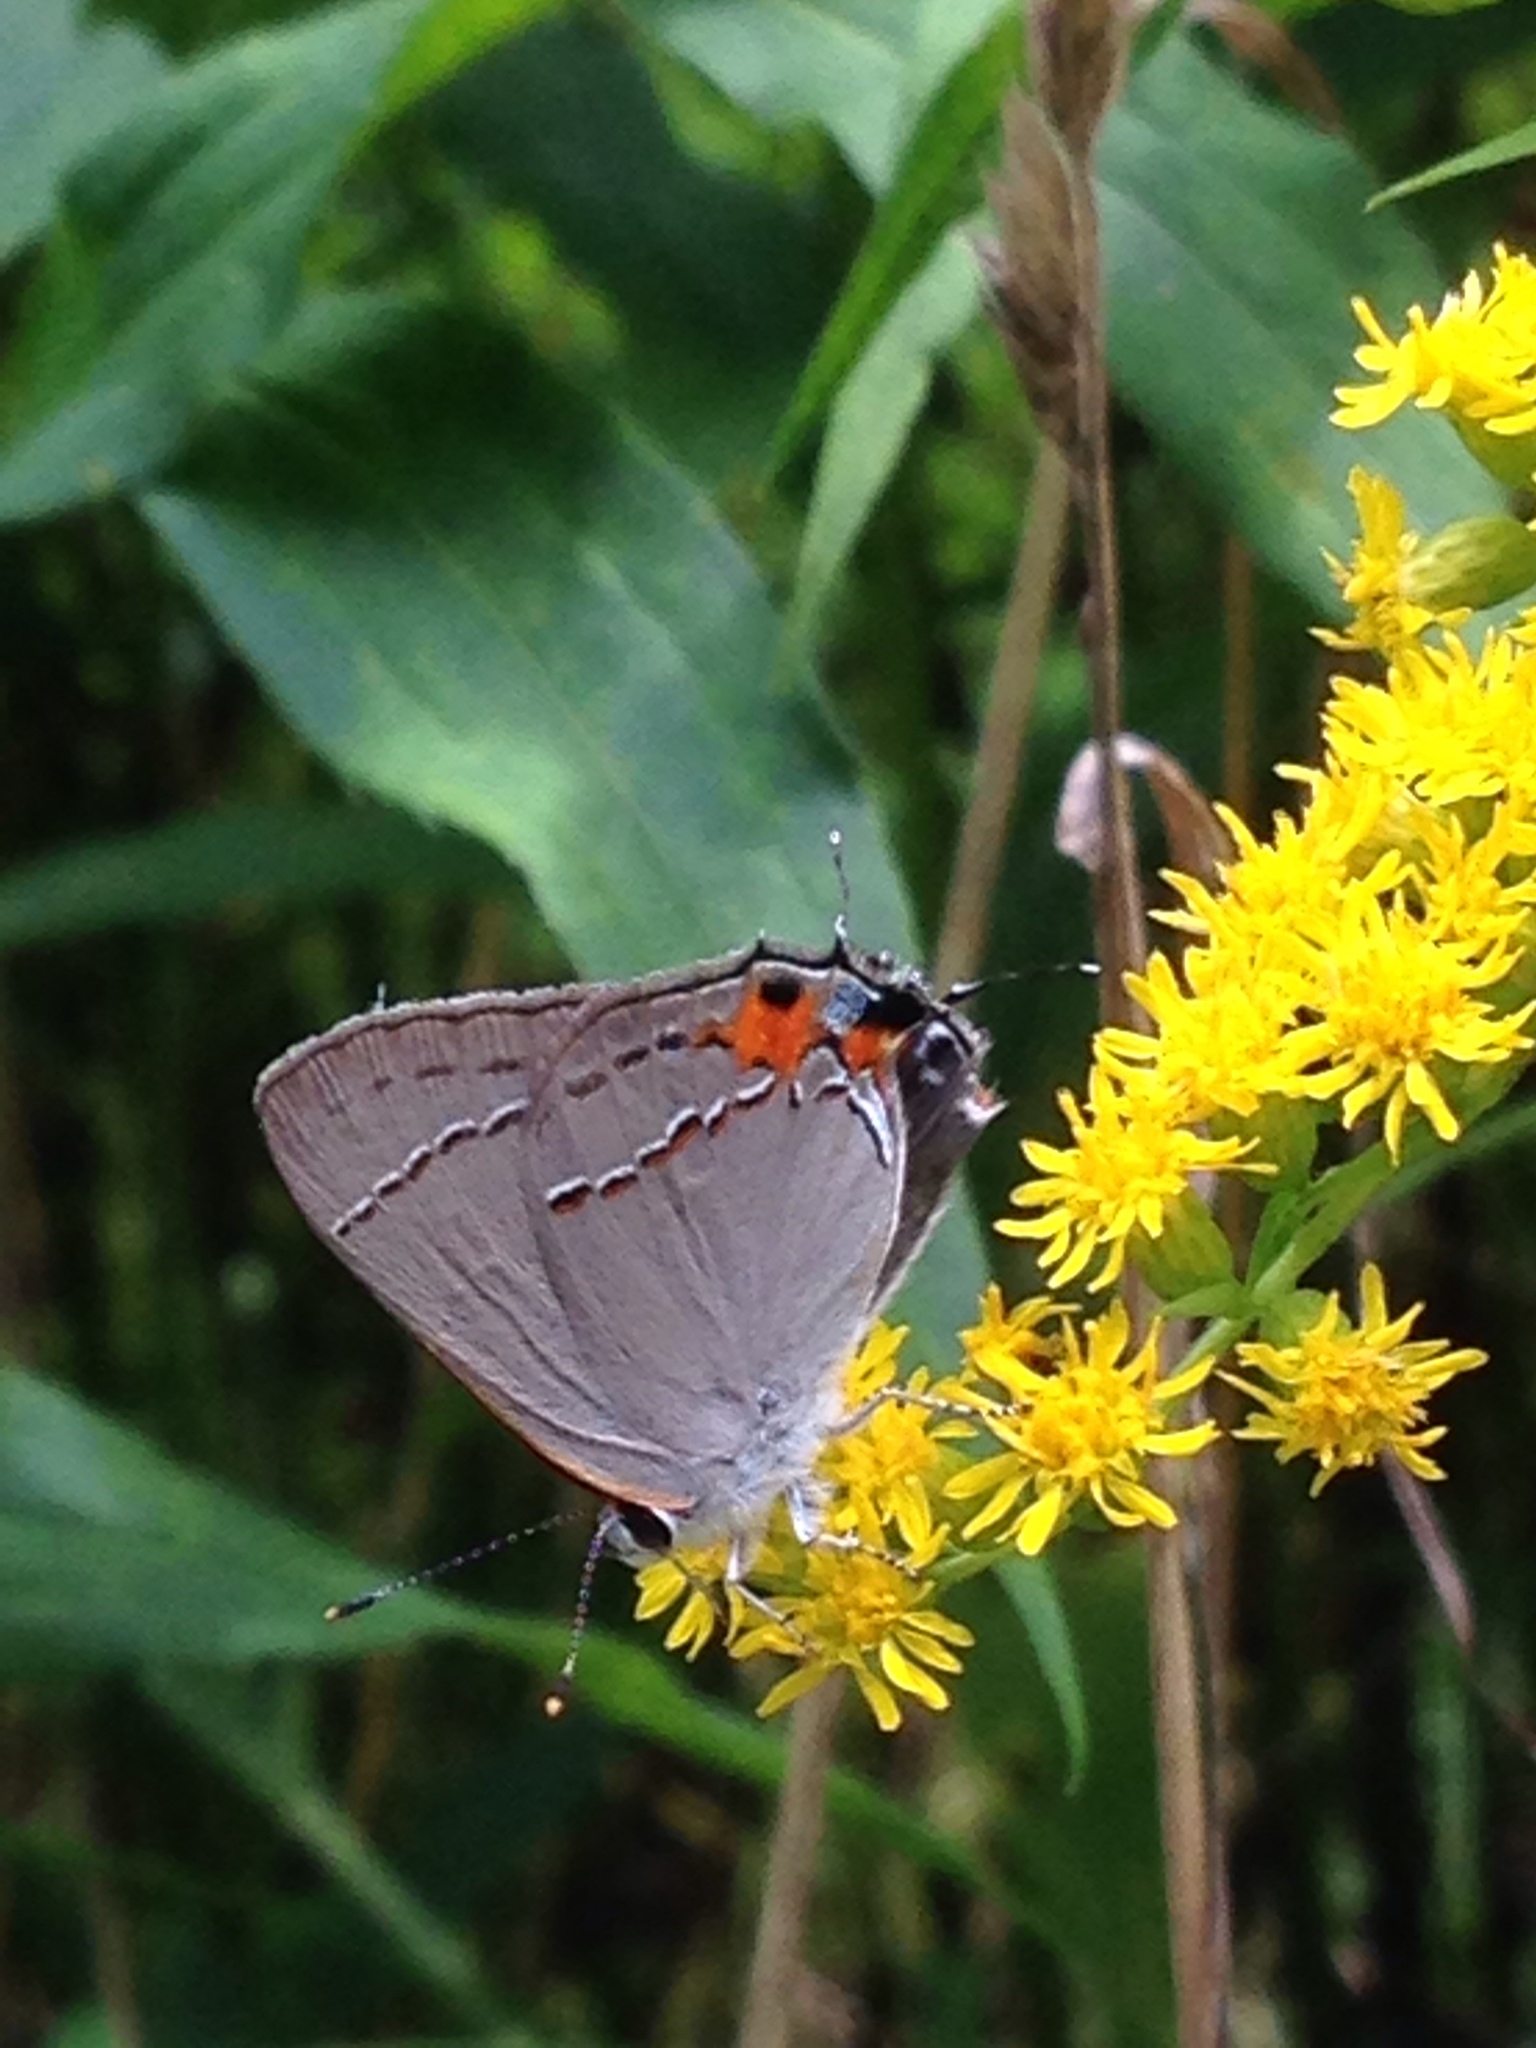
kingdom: Animalia
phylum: Arthropoda
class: Insecta
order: Lepidoptera
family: Lycaenidae
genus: Strymon
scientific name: Strymon melinus
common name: Gray hairstreak
